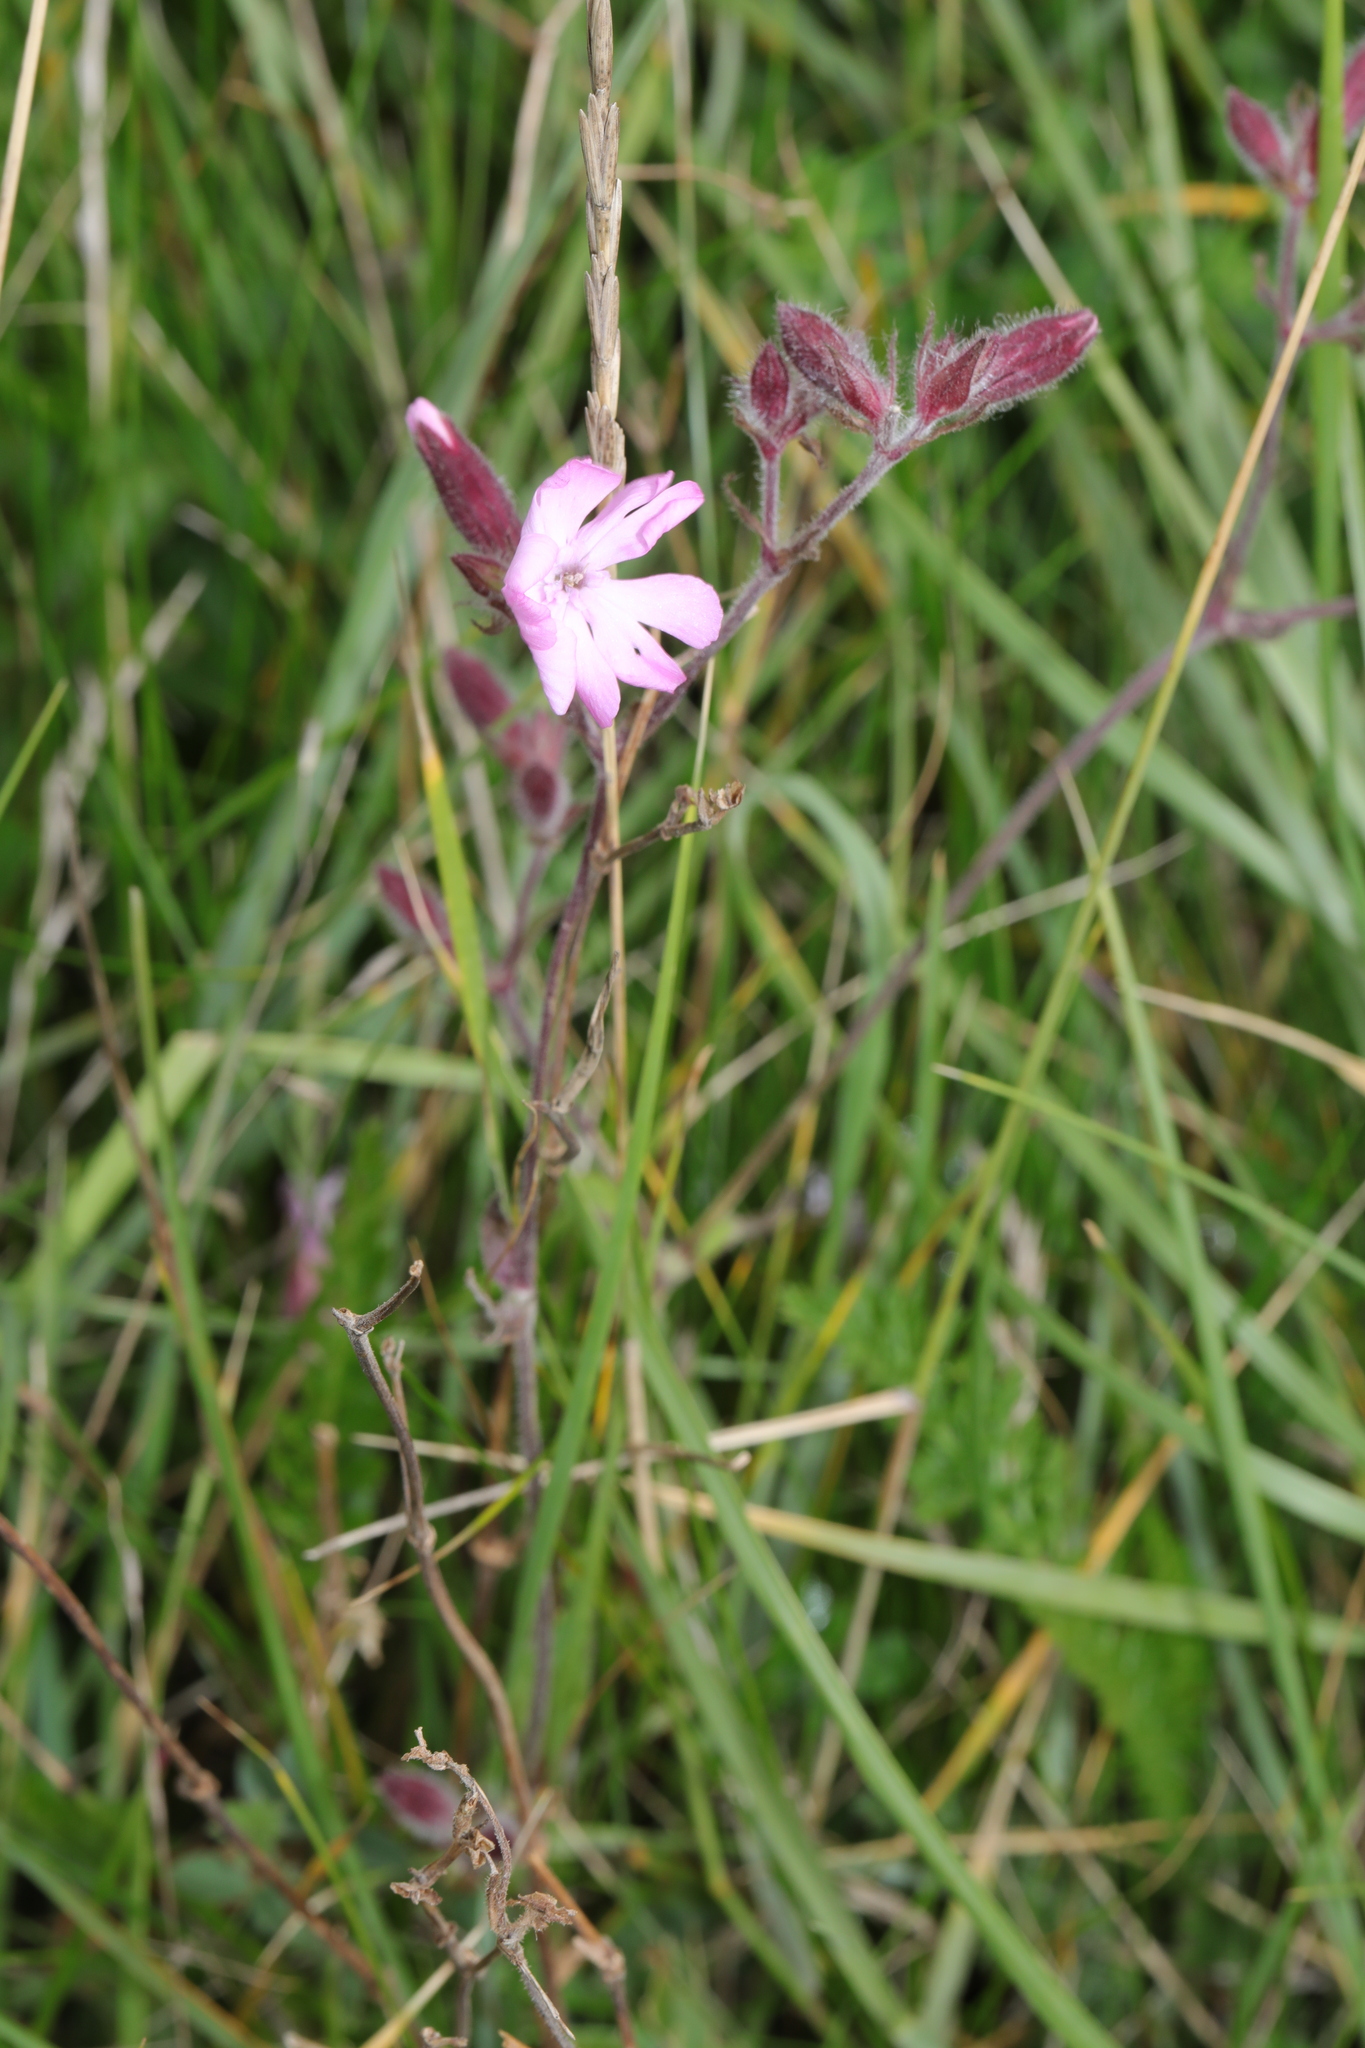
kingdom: Plantae
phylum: Tracheophyta
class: Magnoliopsida
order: Caryophyllales
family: Caryophyllaceae
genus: Silene
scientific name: Silene dioica
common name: Red campion
